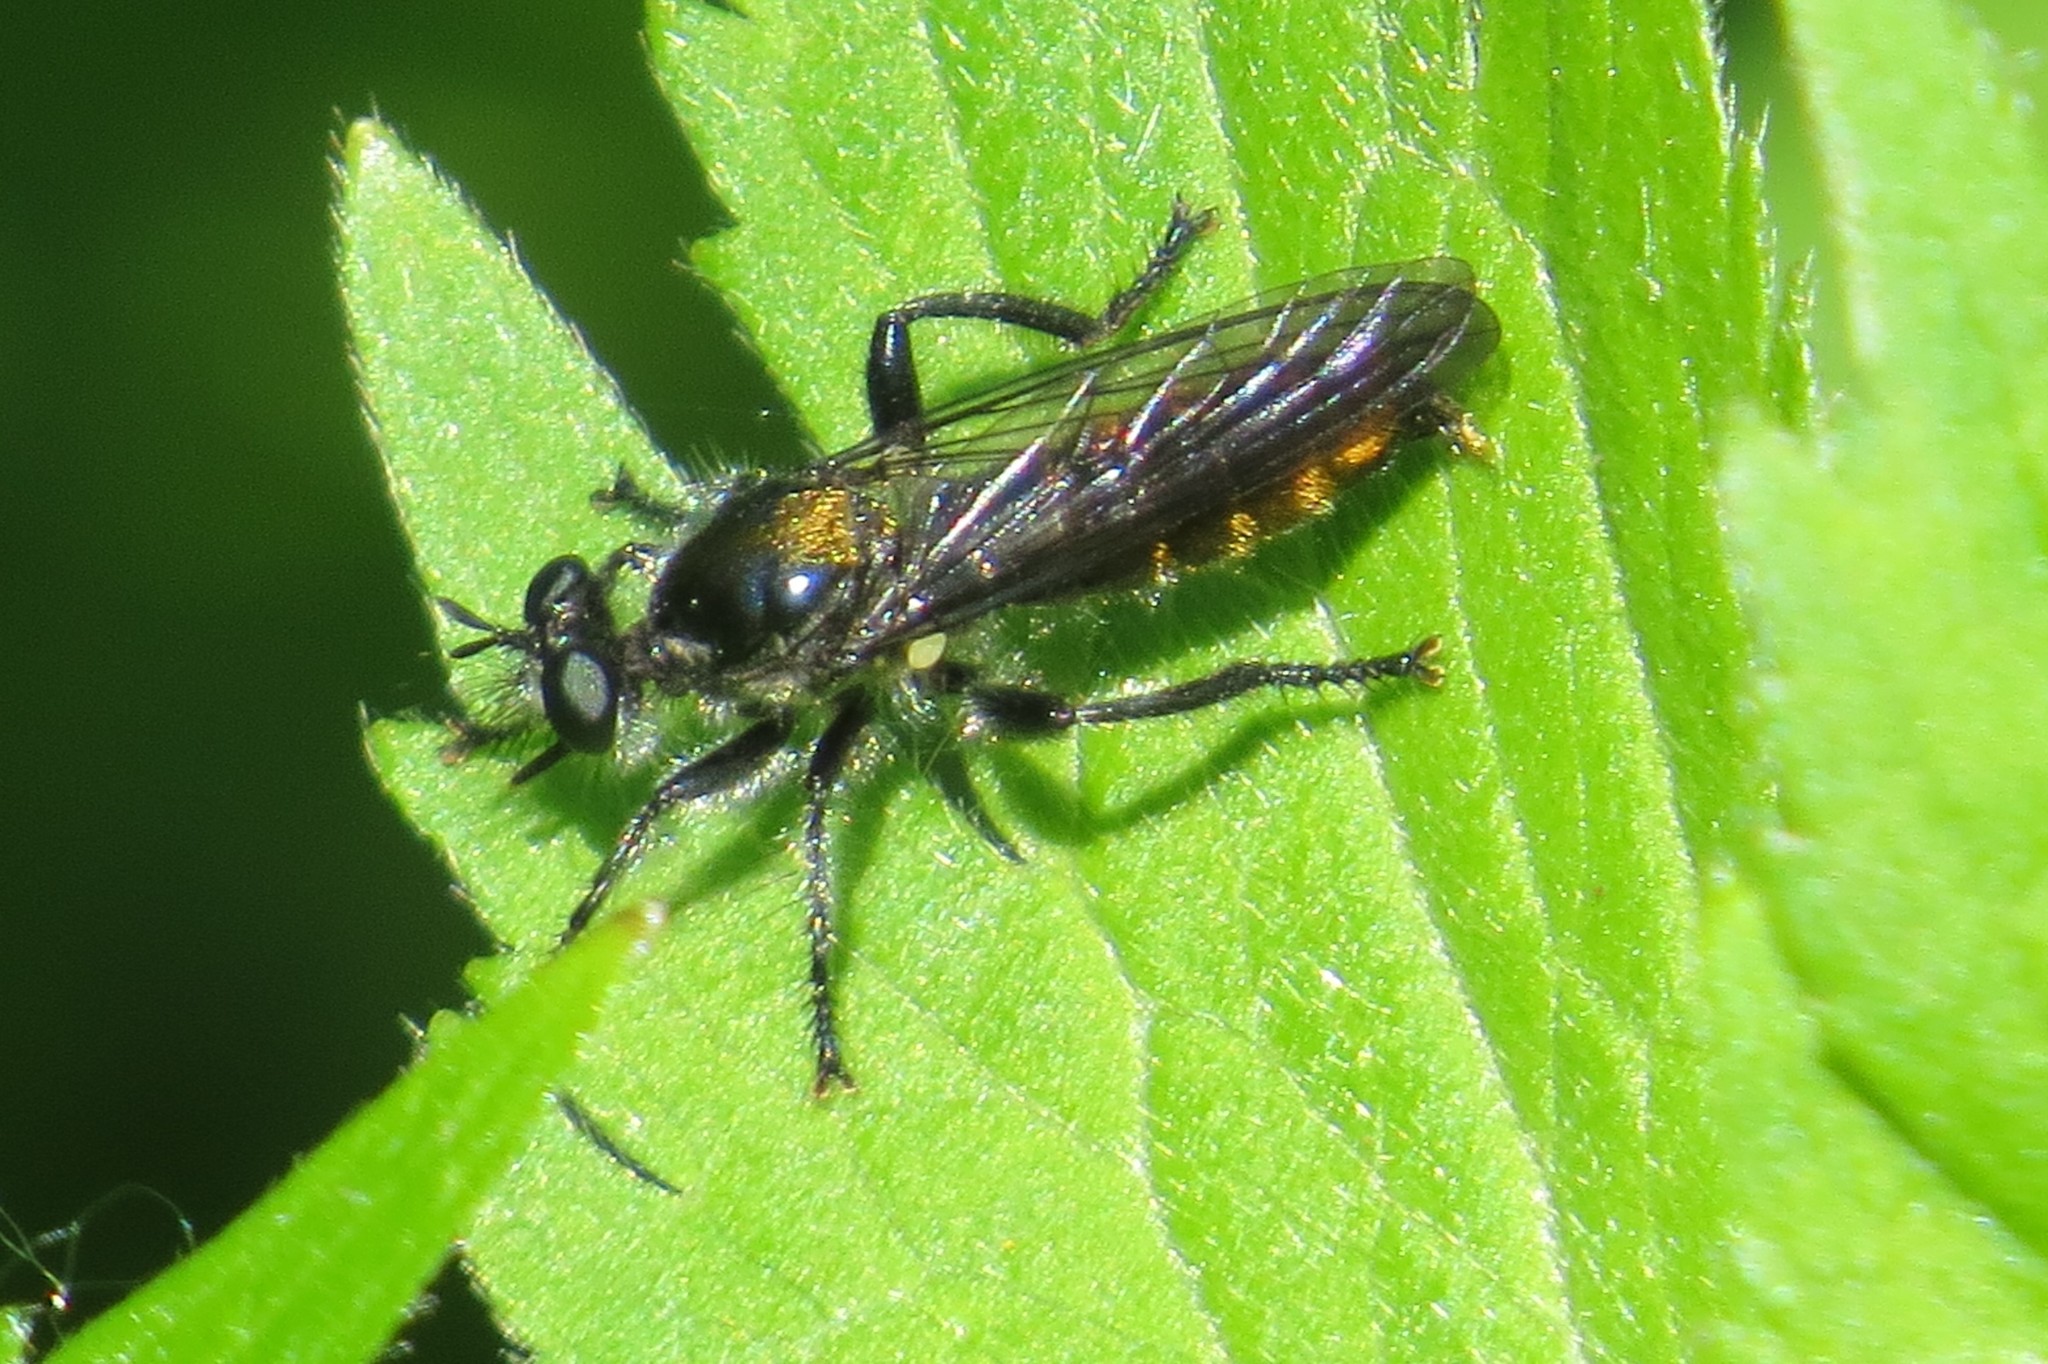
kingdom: Animalia
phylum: Arthropoda
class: Insecta
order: Diptera
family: Asilidae
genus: Laphria
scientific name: Laphria
